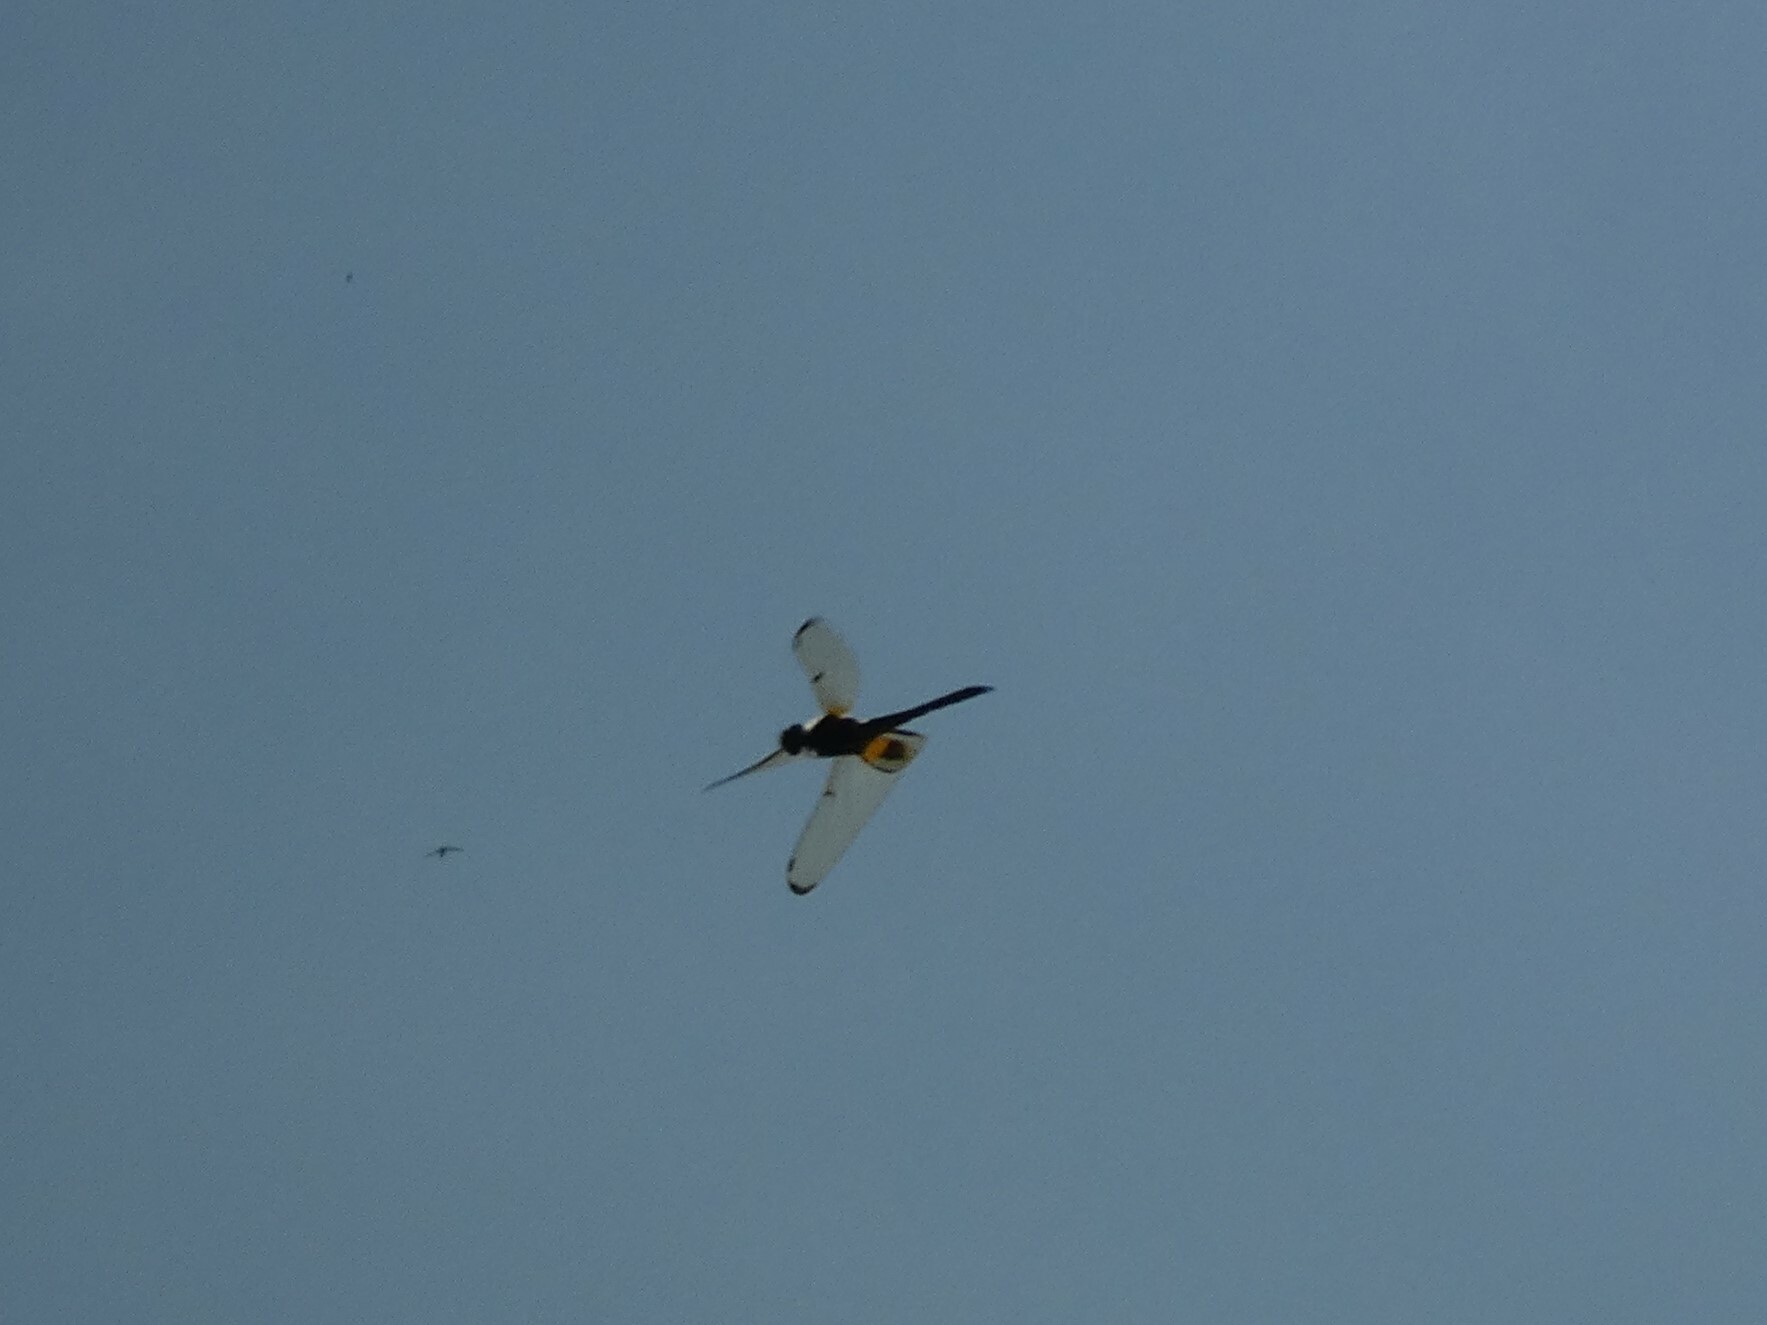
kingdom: Animalia
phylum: Arthropoda
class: Insecta
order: Odonata
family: Libellulidae
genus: Rhyothemis
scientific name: Rhyothemis phyllis
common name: Yellow-barred flutterer
